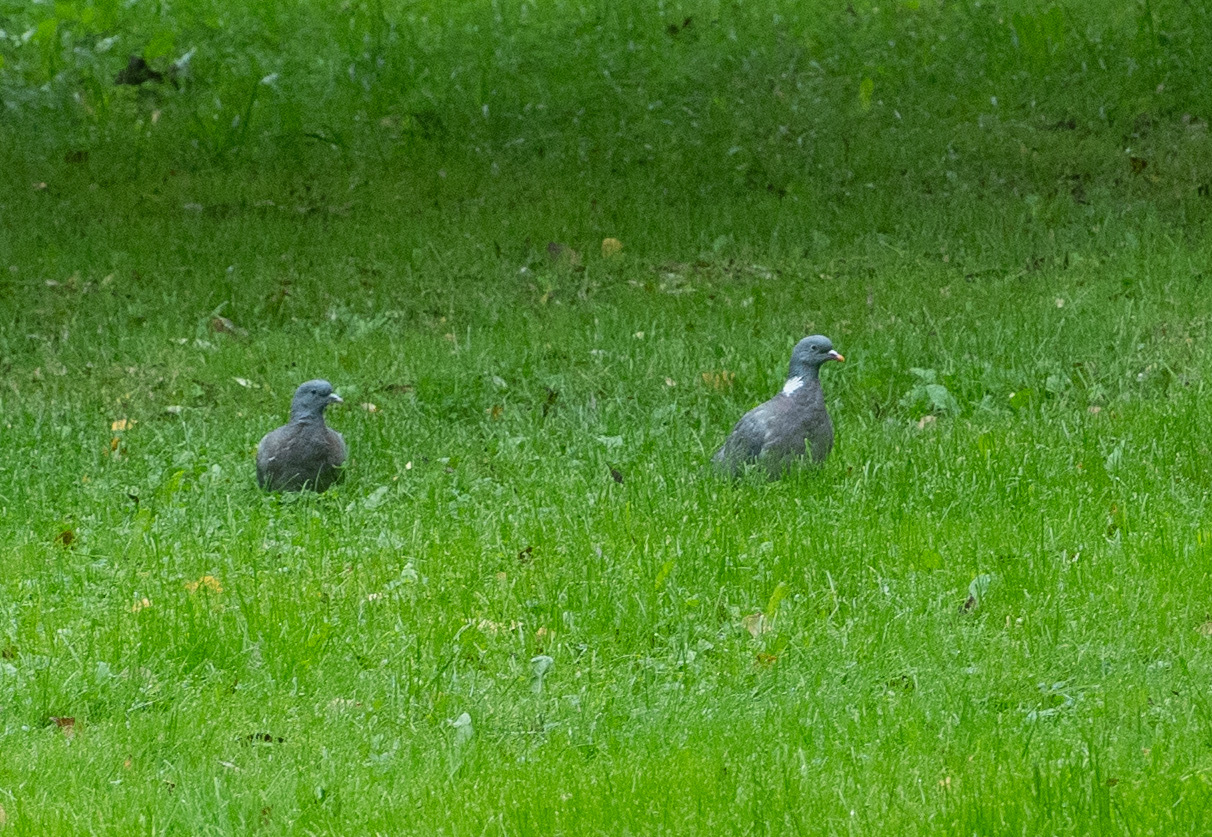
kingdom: Animalia
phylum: Chordata
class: Aves
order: Columbiformes
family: Columbidae
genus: Columba
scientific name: Columba palumbus
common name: Common wood pigeon
